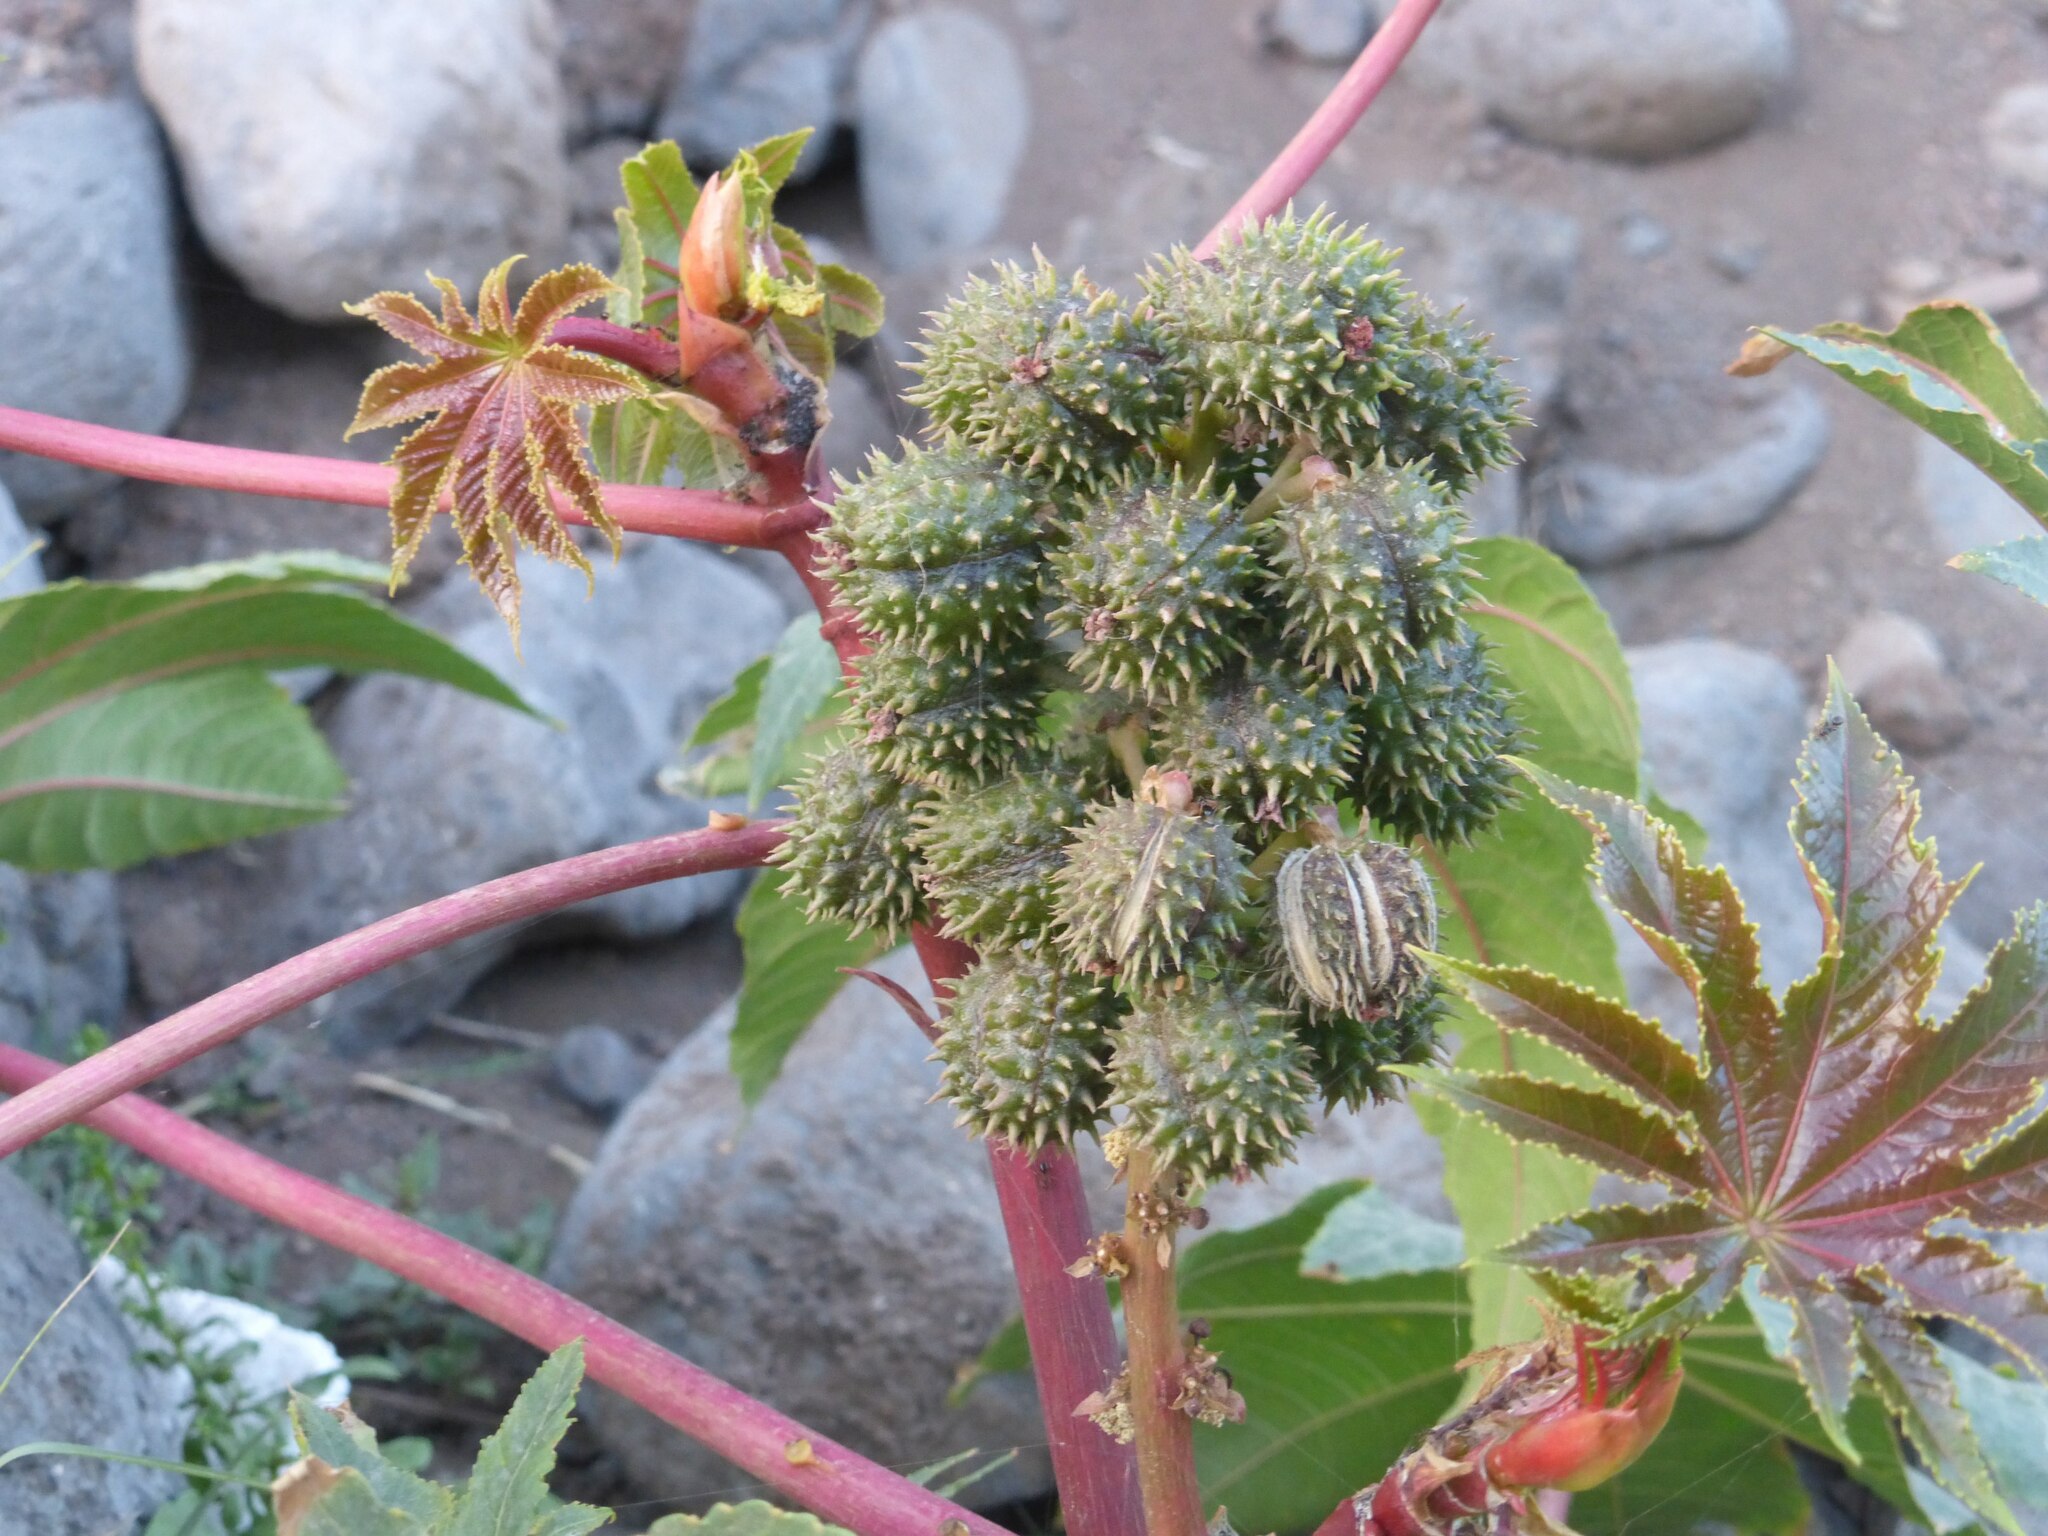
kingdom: Plantae
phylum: Tracheophyta
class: Magnoliopsida
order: Malpighiales
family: Euphorbiaceae
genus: Ricinus
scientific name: Ricinus communis
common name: Castor-oil-plant
